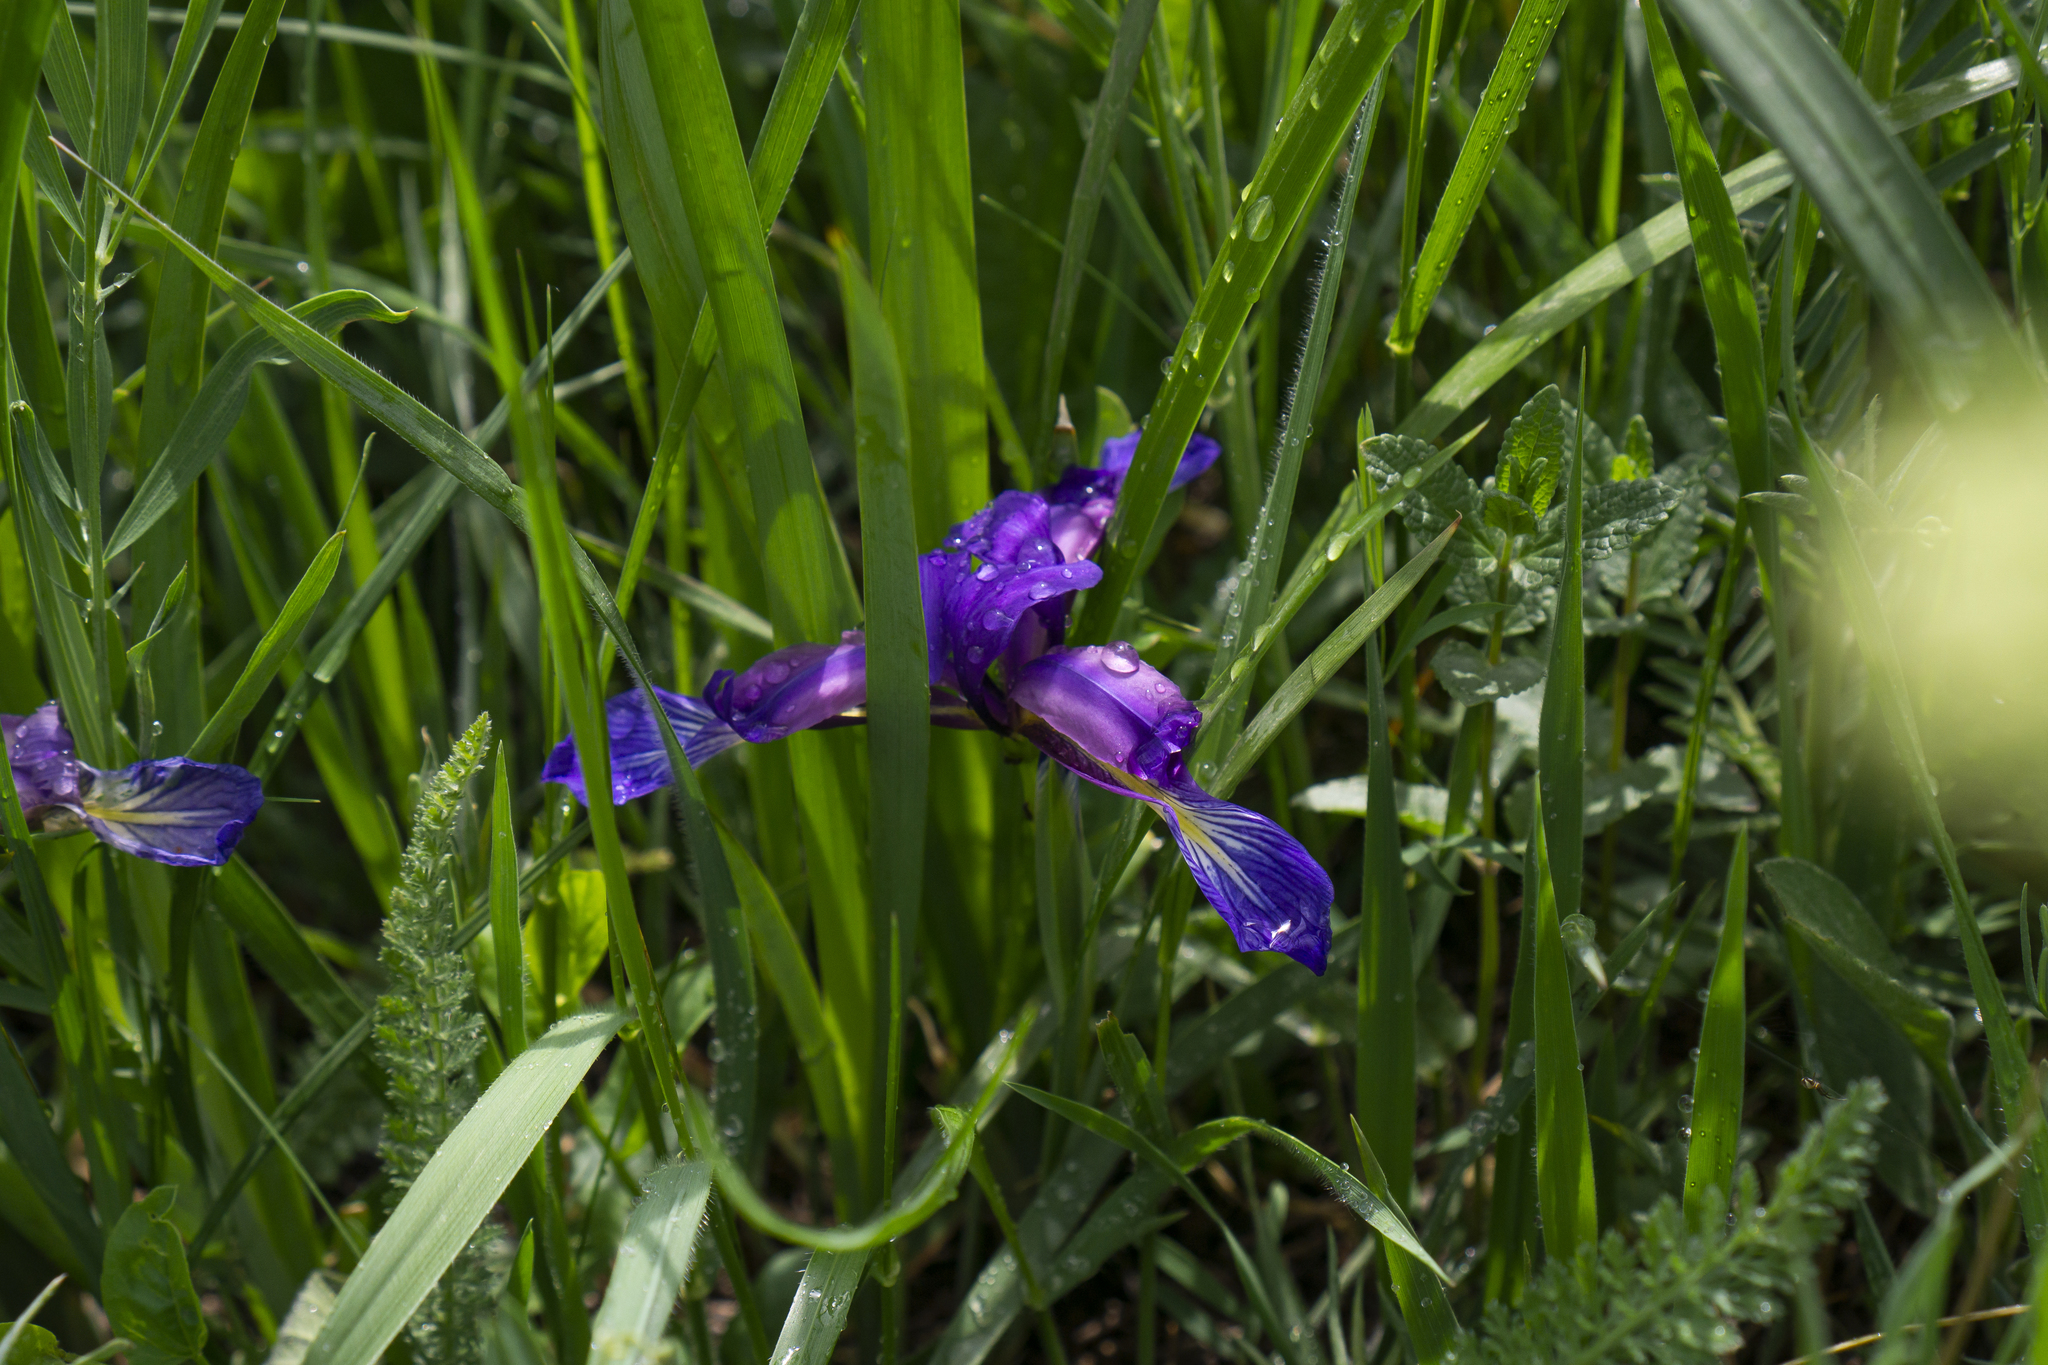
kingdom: Plantae
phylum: Tracheophyta
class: Liliopsida
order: Asparagales
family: Iridaceae
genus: Iris
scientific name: Iris graminea
